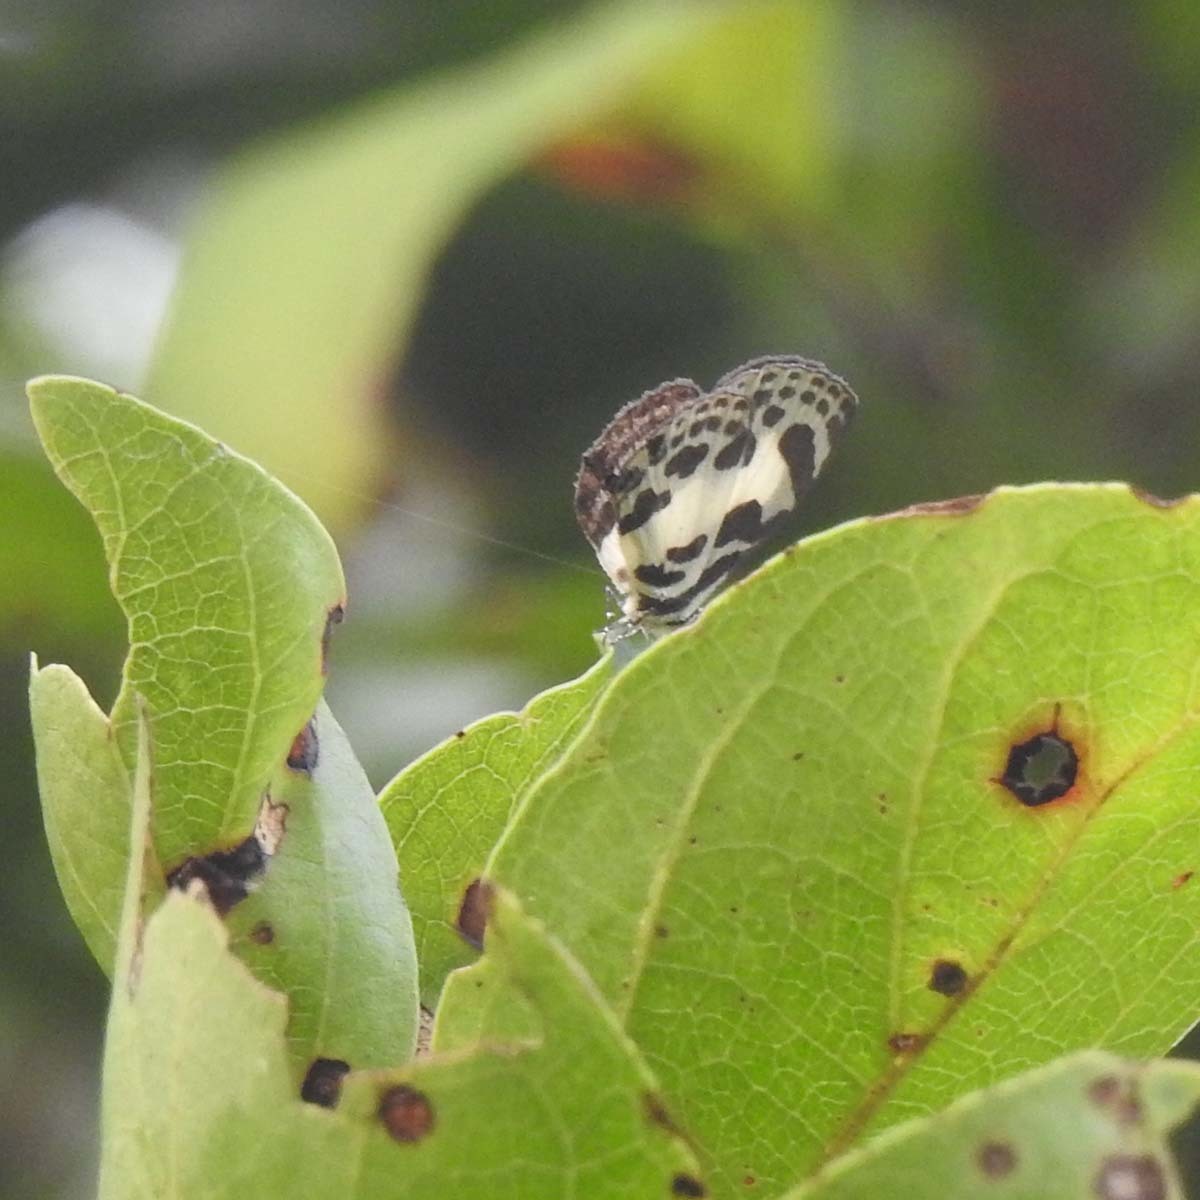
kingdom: Animalia
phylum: Arthropoda
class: Insecta
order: Lepidoptera
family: Lycaenidae
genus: Discolampa
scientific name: Discolampa ethion
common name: Banded blue pierrot
